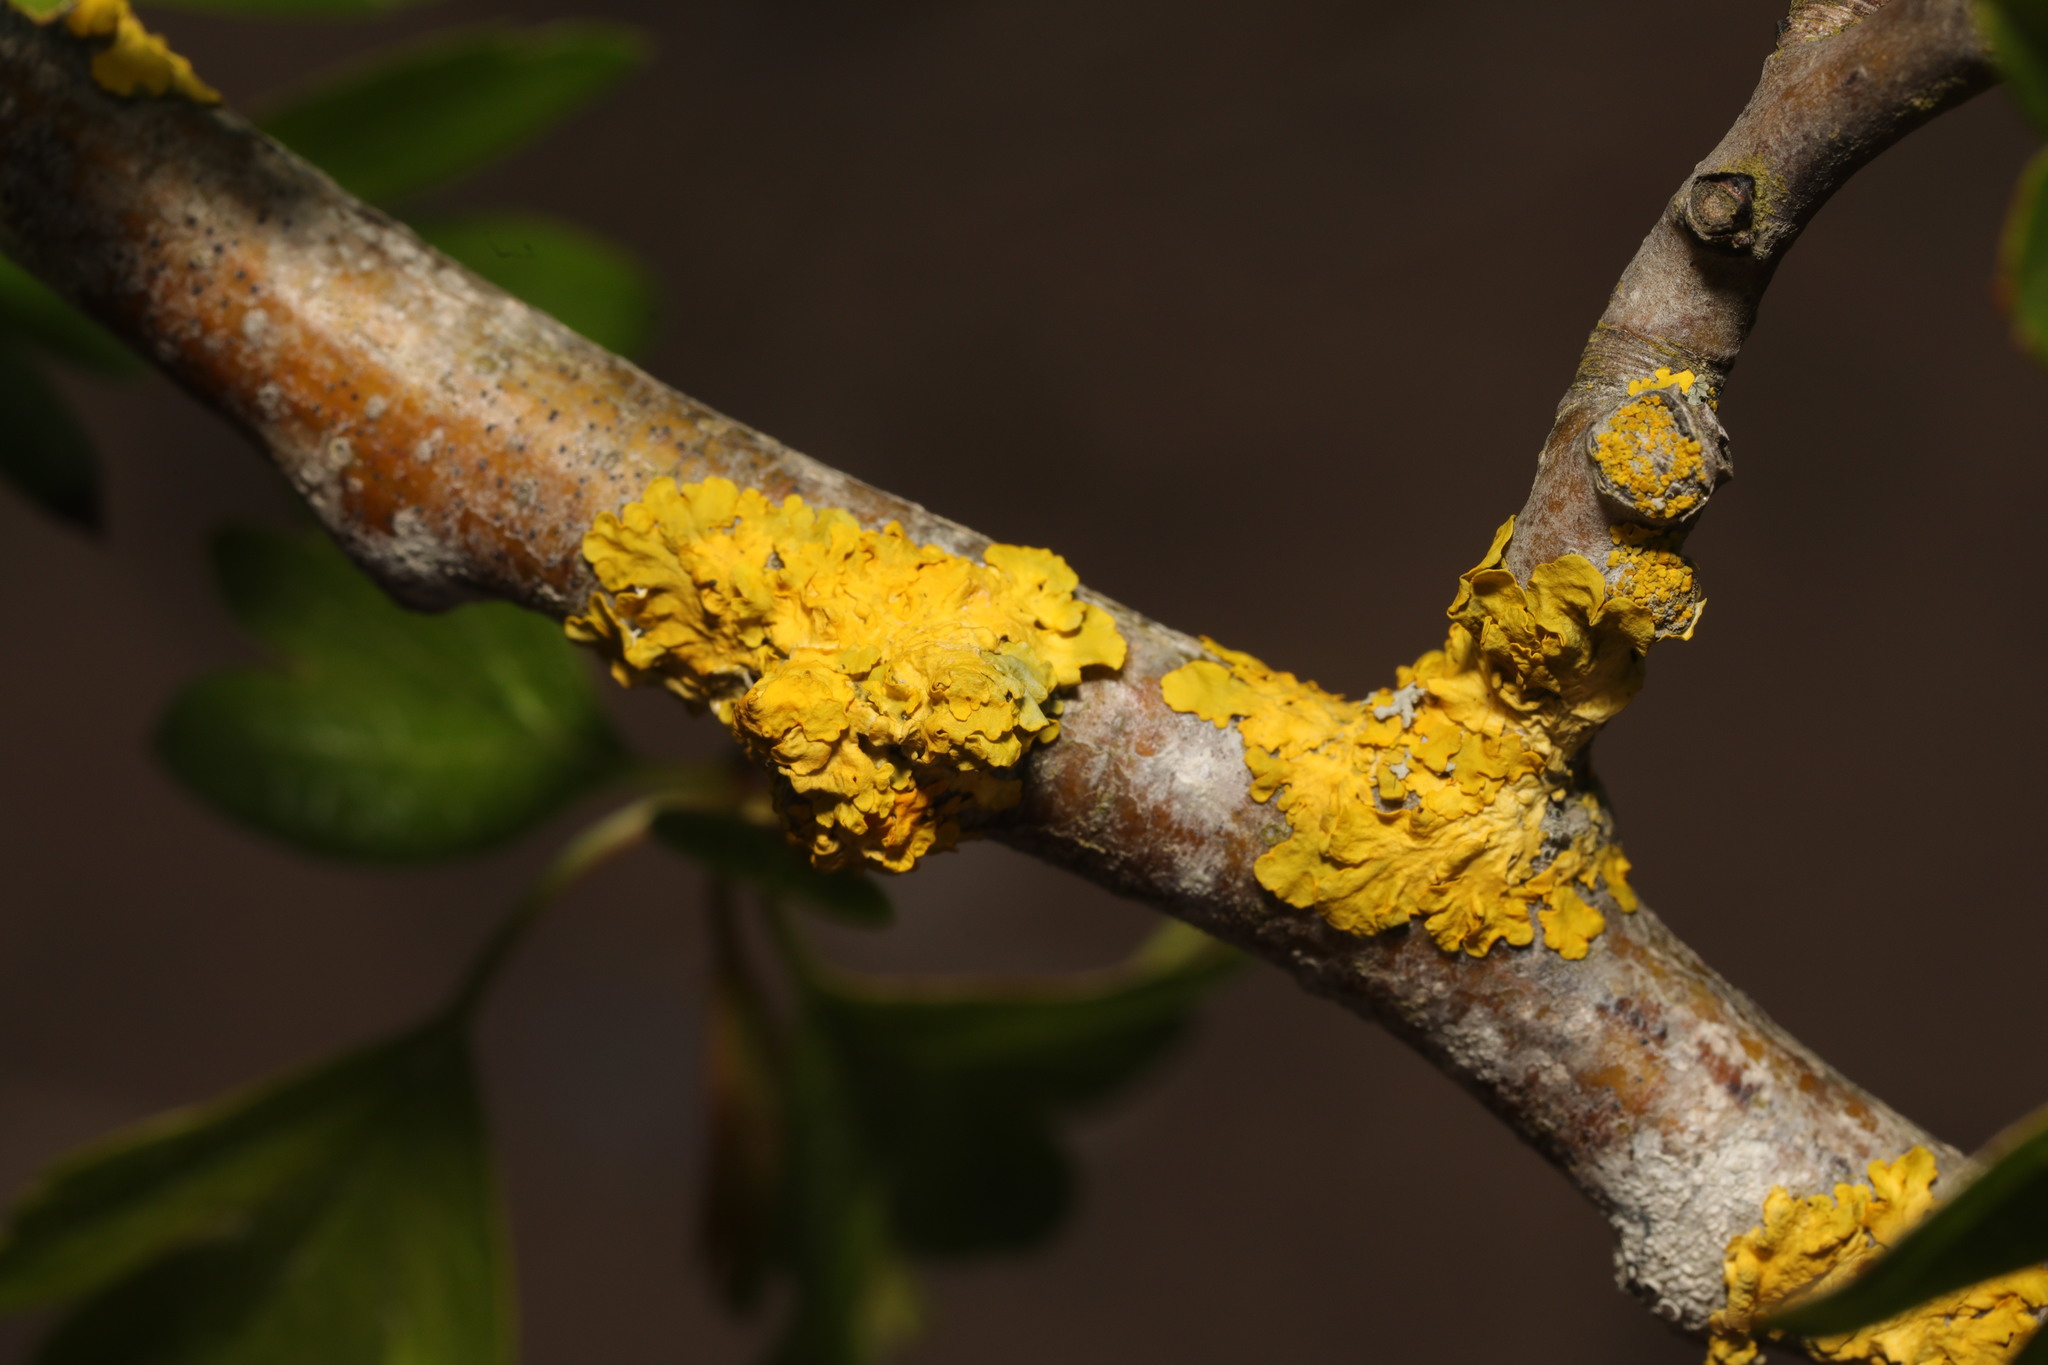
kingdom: Fungi
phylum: Ascomycota
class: Lecanoromycetes
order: Teloschistales
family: Teloschistaceae
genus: Xanthoria
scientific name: Xanthoria parietina
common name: Common orange lichen
